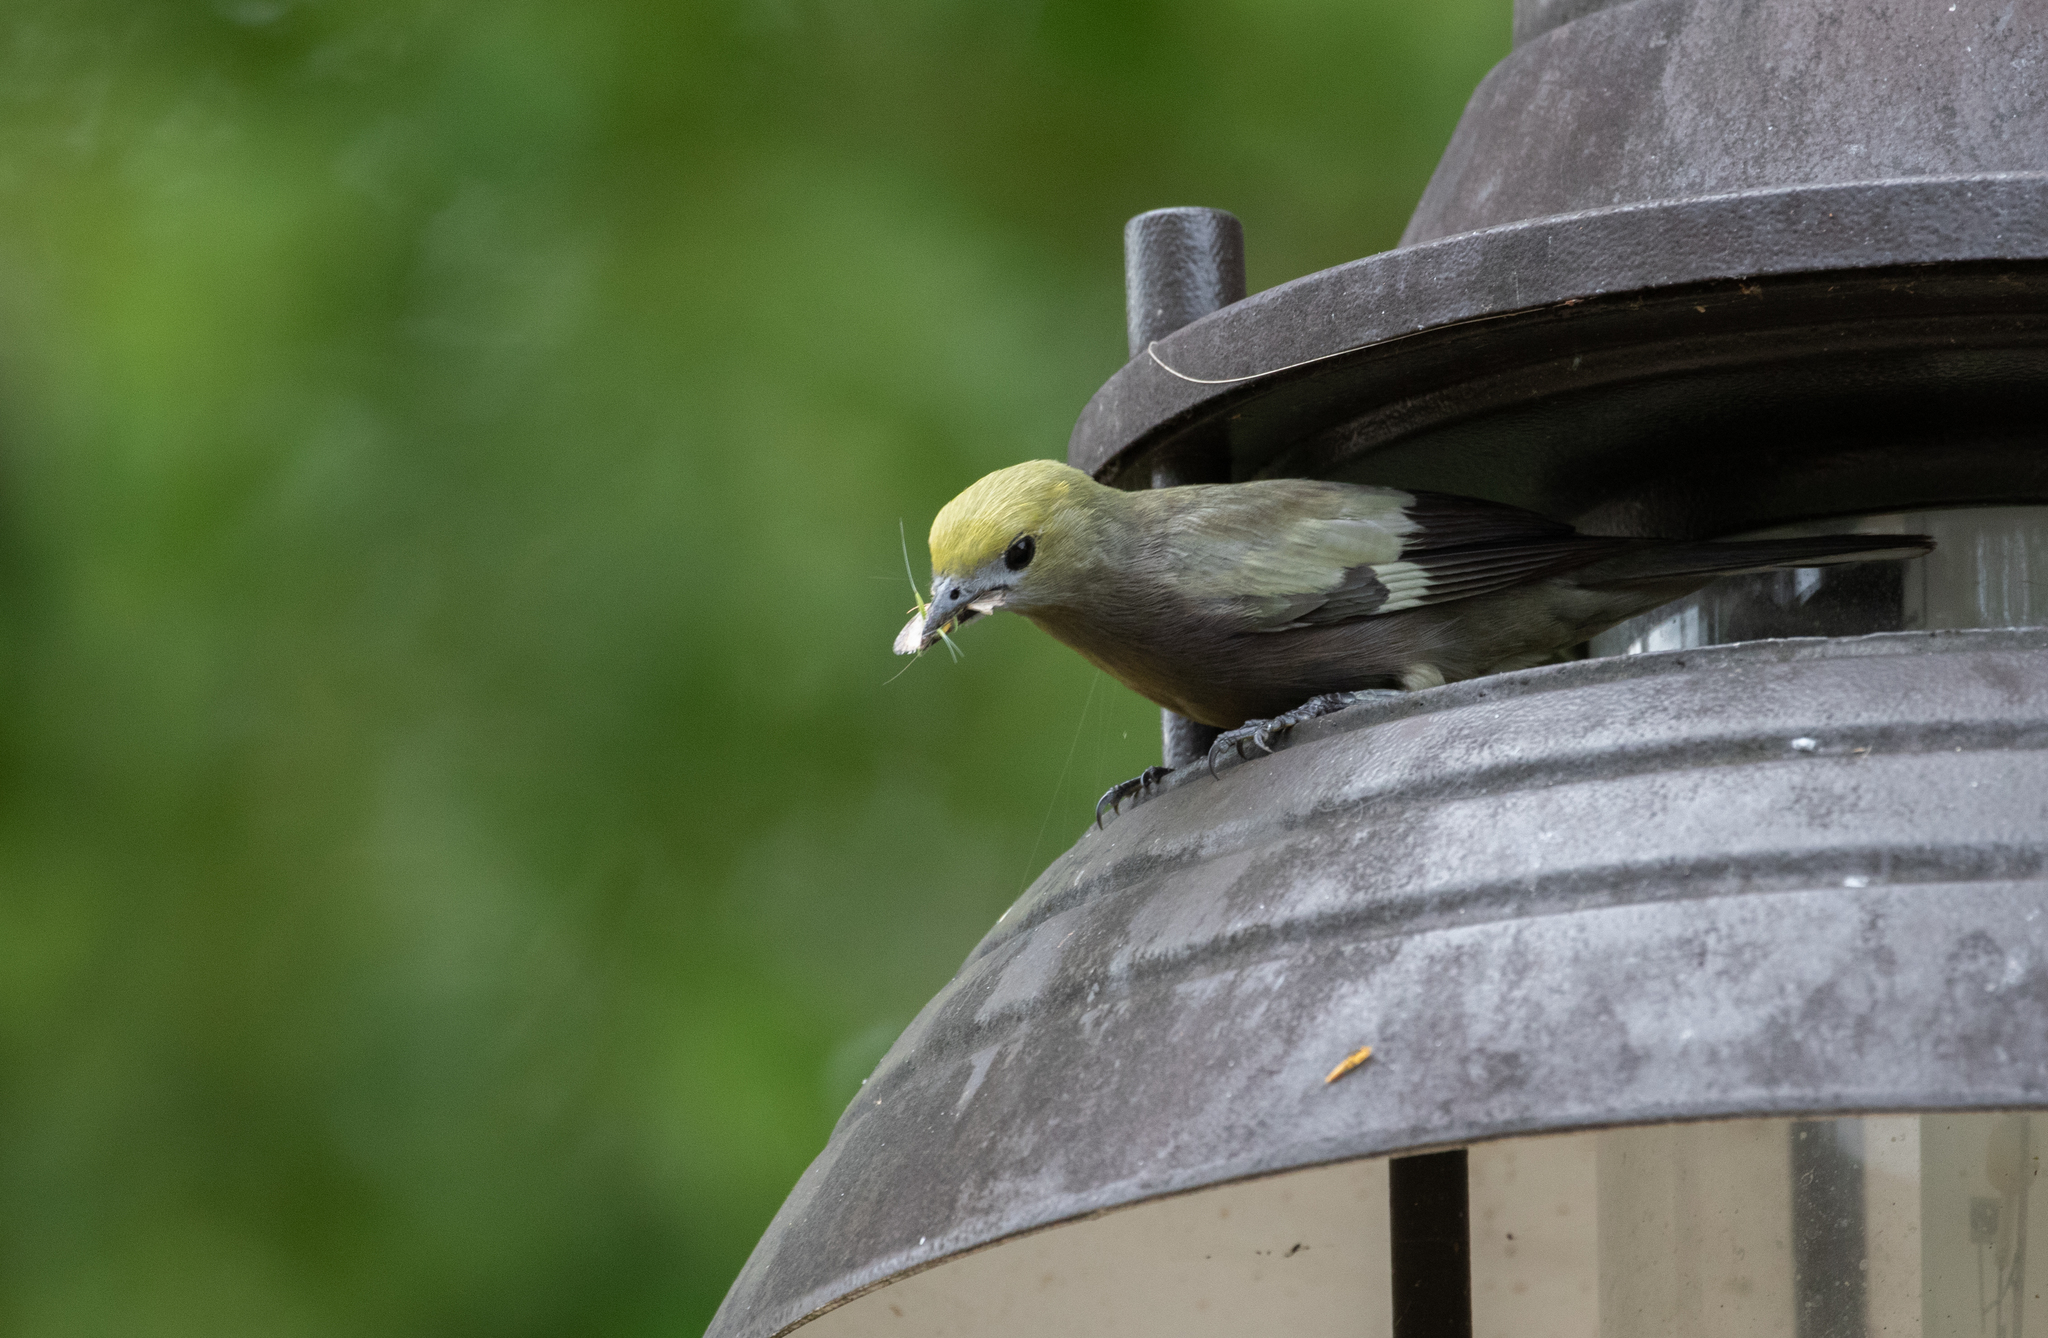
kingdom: Animalia
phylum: Chordata
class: Aves
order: Passeriformes
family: Thraupidae
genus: Thraupis
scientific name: Thraupis palmarum
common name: Palm tanager
